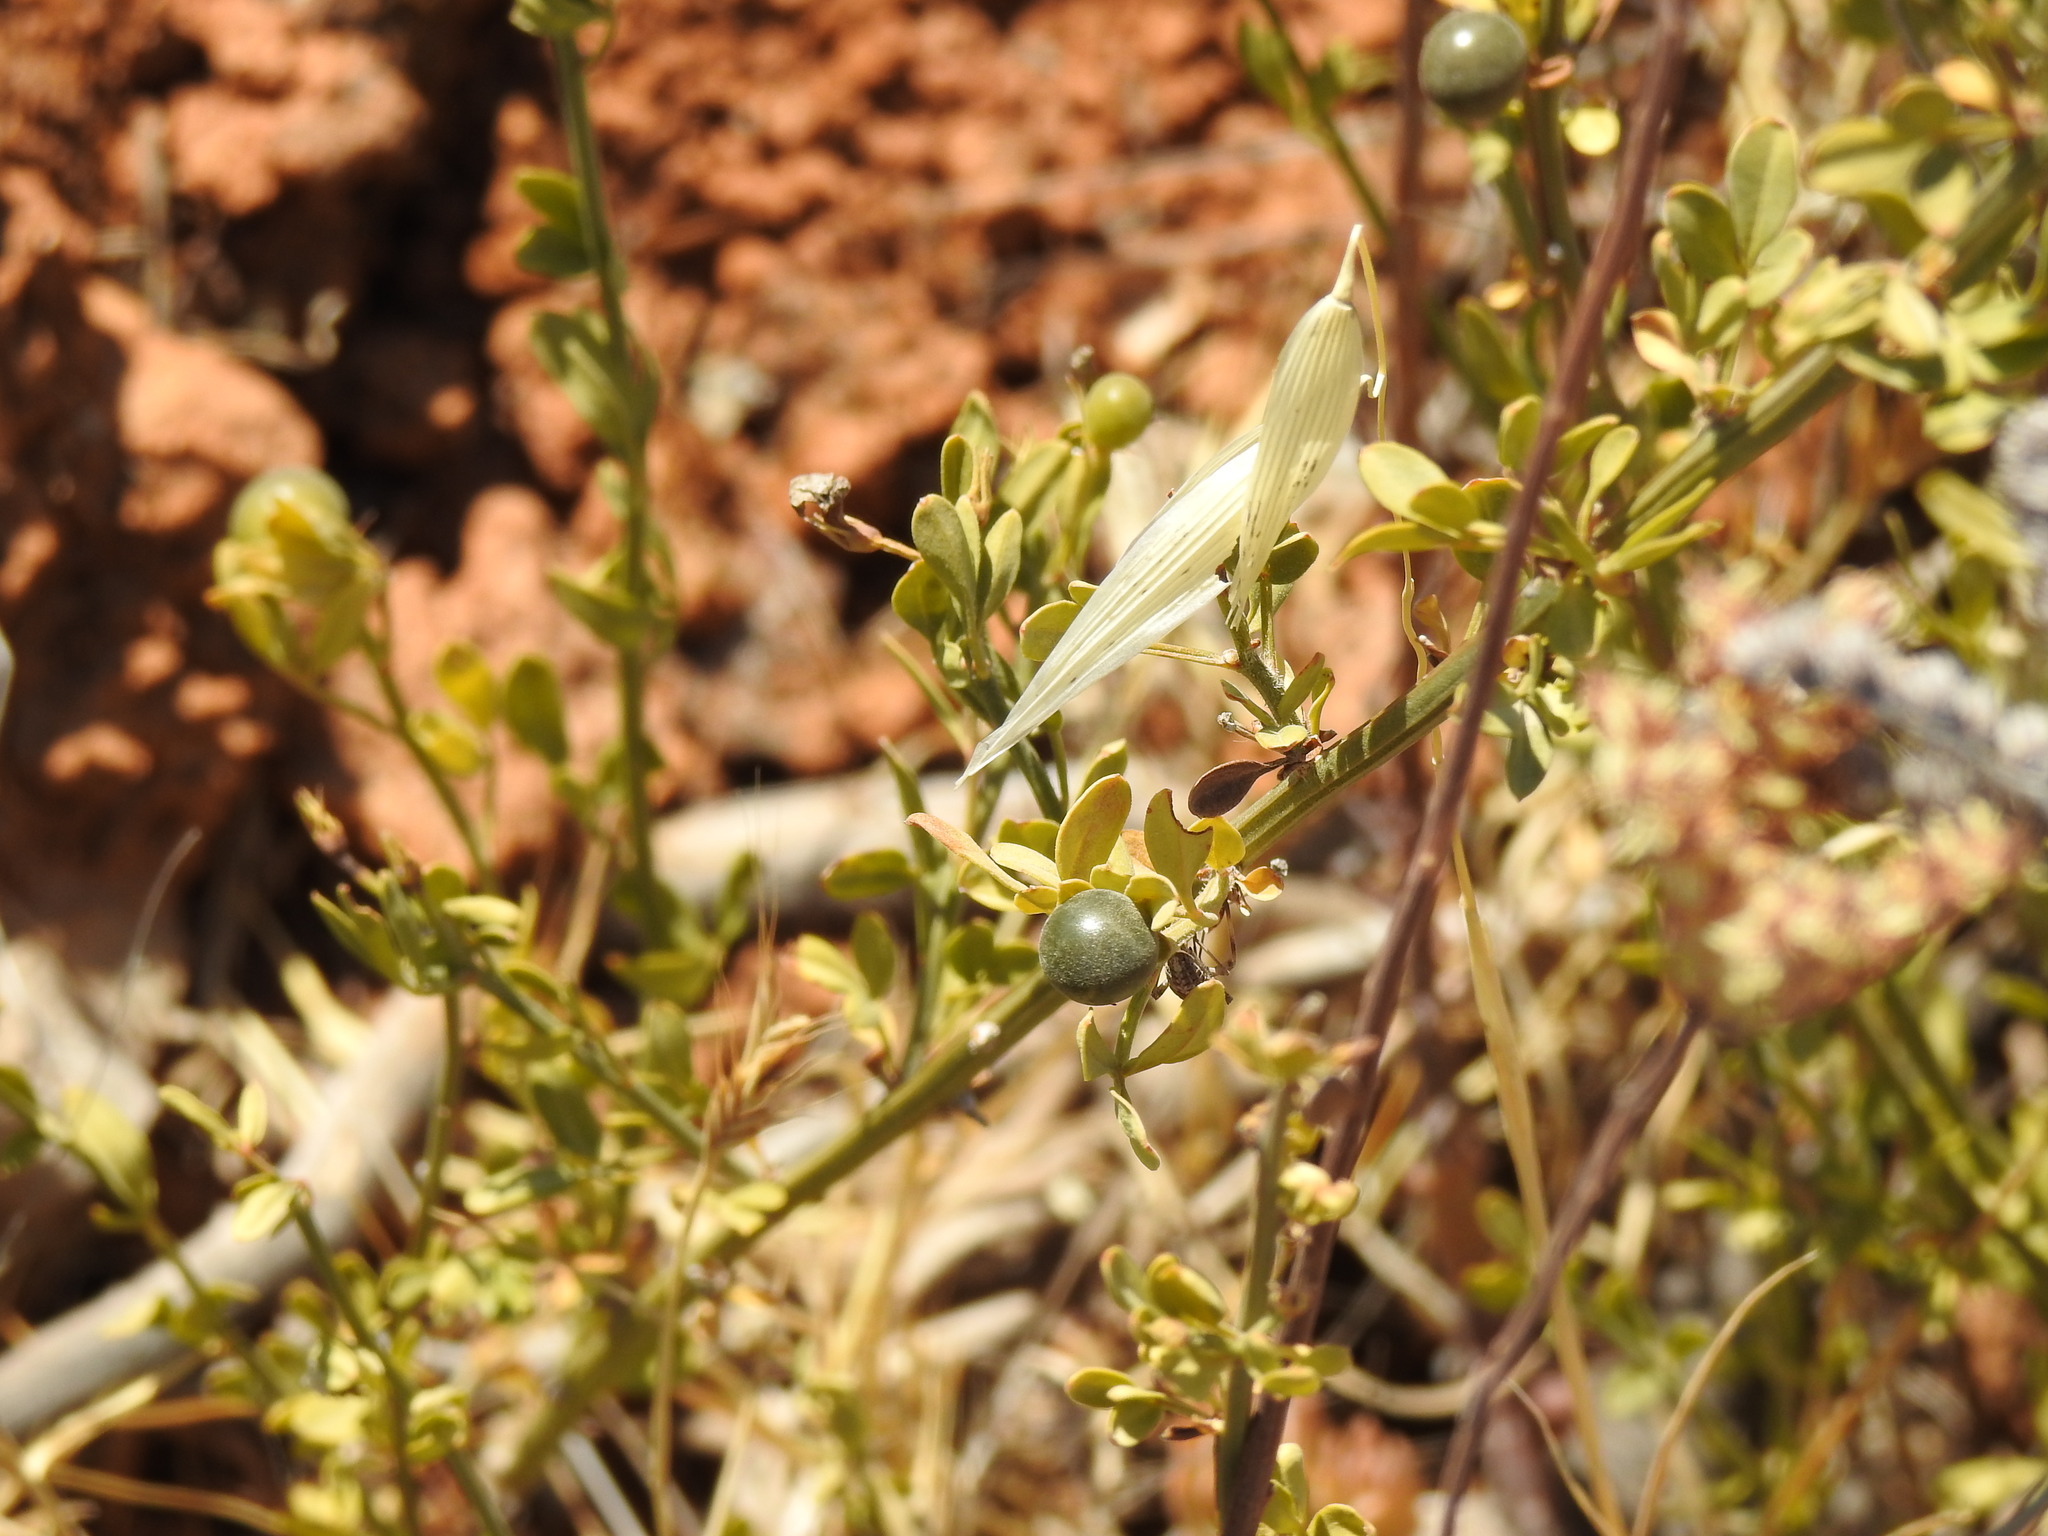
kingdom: Plantae
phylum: Tracheophyta
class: Magnoliopsida
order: Lamiales
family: Oleaceae
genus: Chrysojasminum
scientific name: Chrysojasminum fruticans
